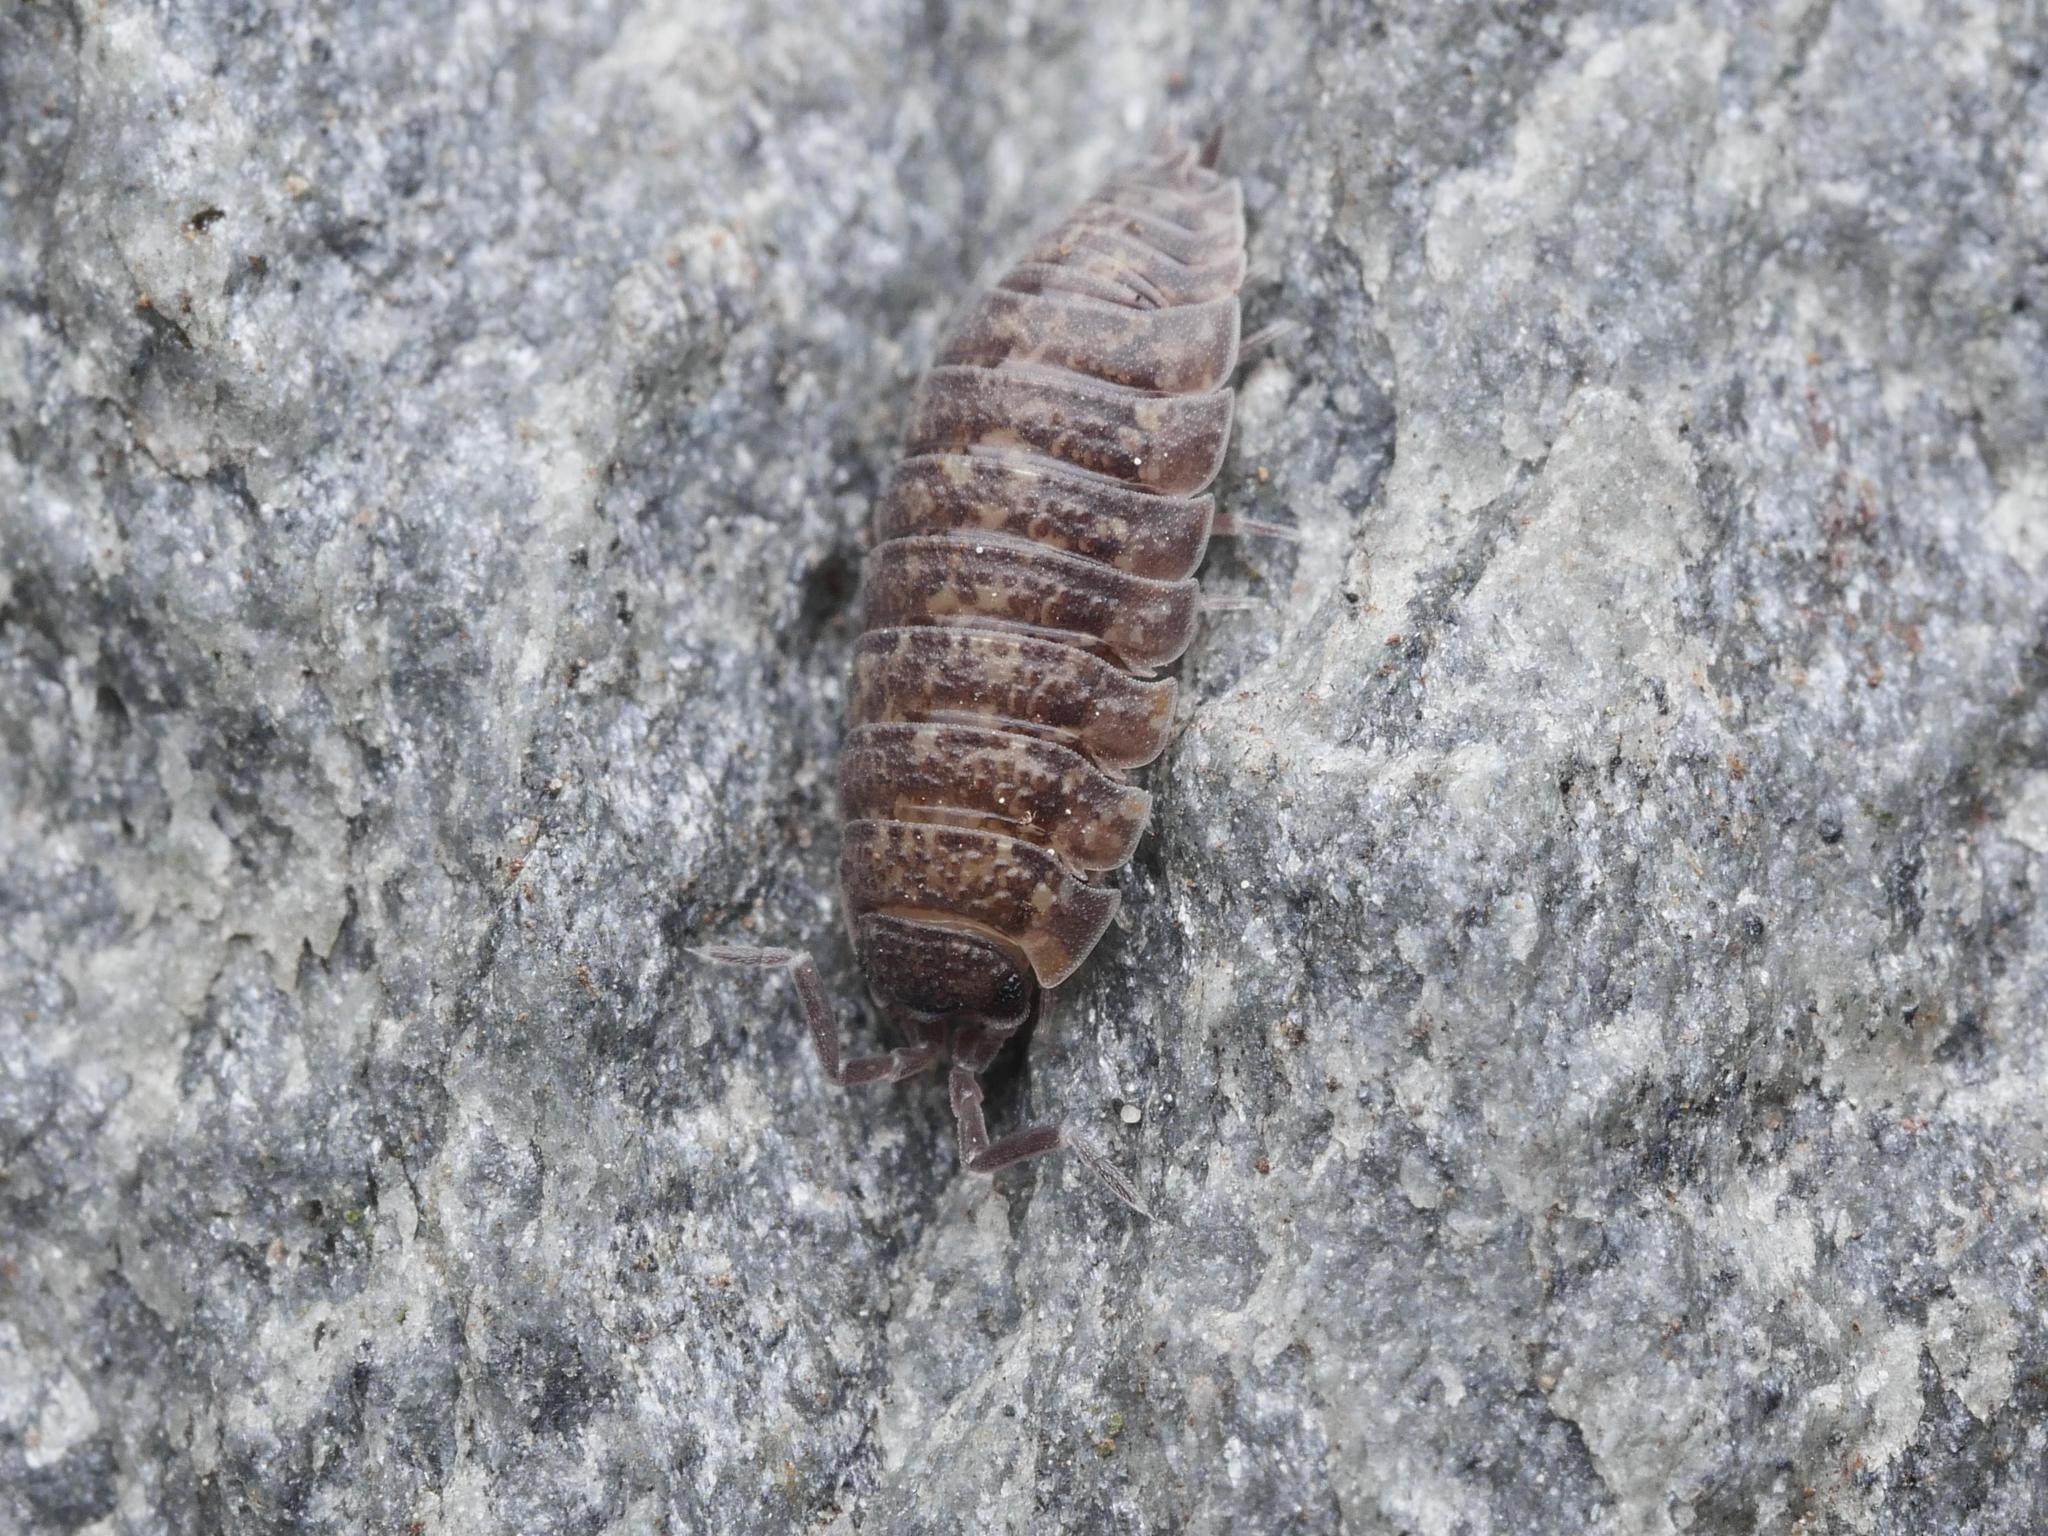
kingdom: Animalia
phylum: Arthropoda
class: Malacostraca
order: Isopoda
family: Porcellionidae
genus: Porcellio
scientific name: Porcellio scaber
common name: Common rough woodlouse
